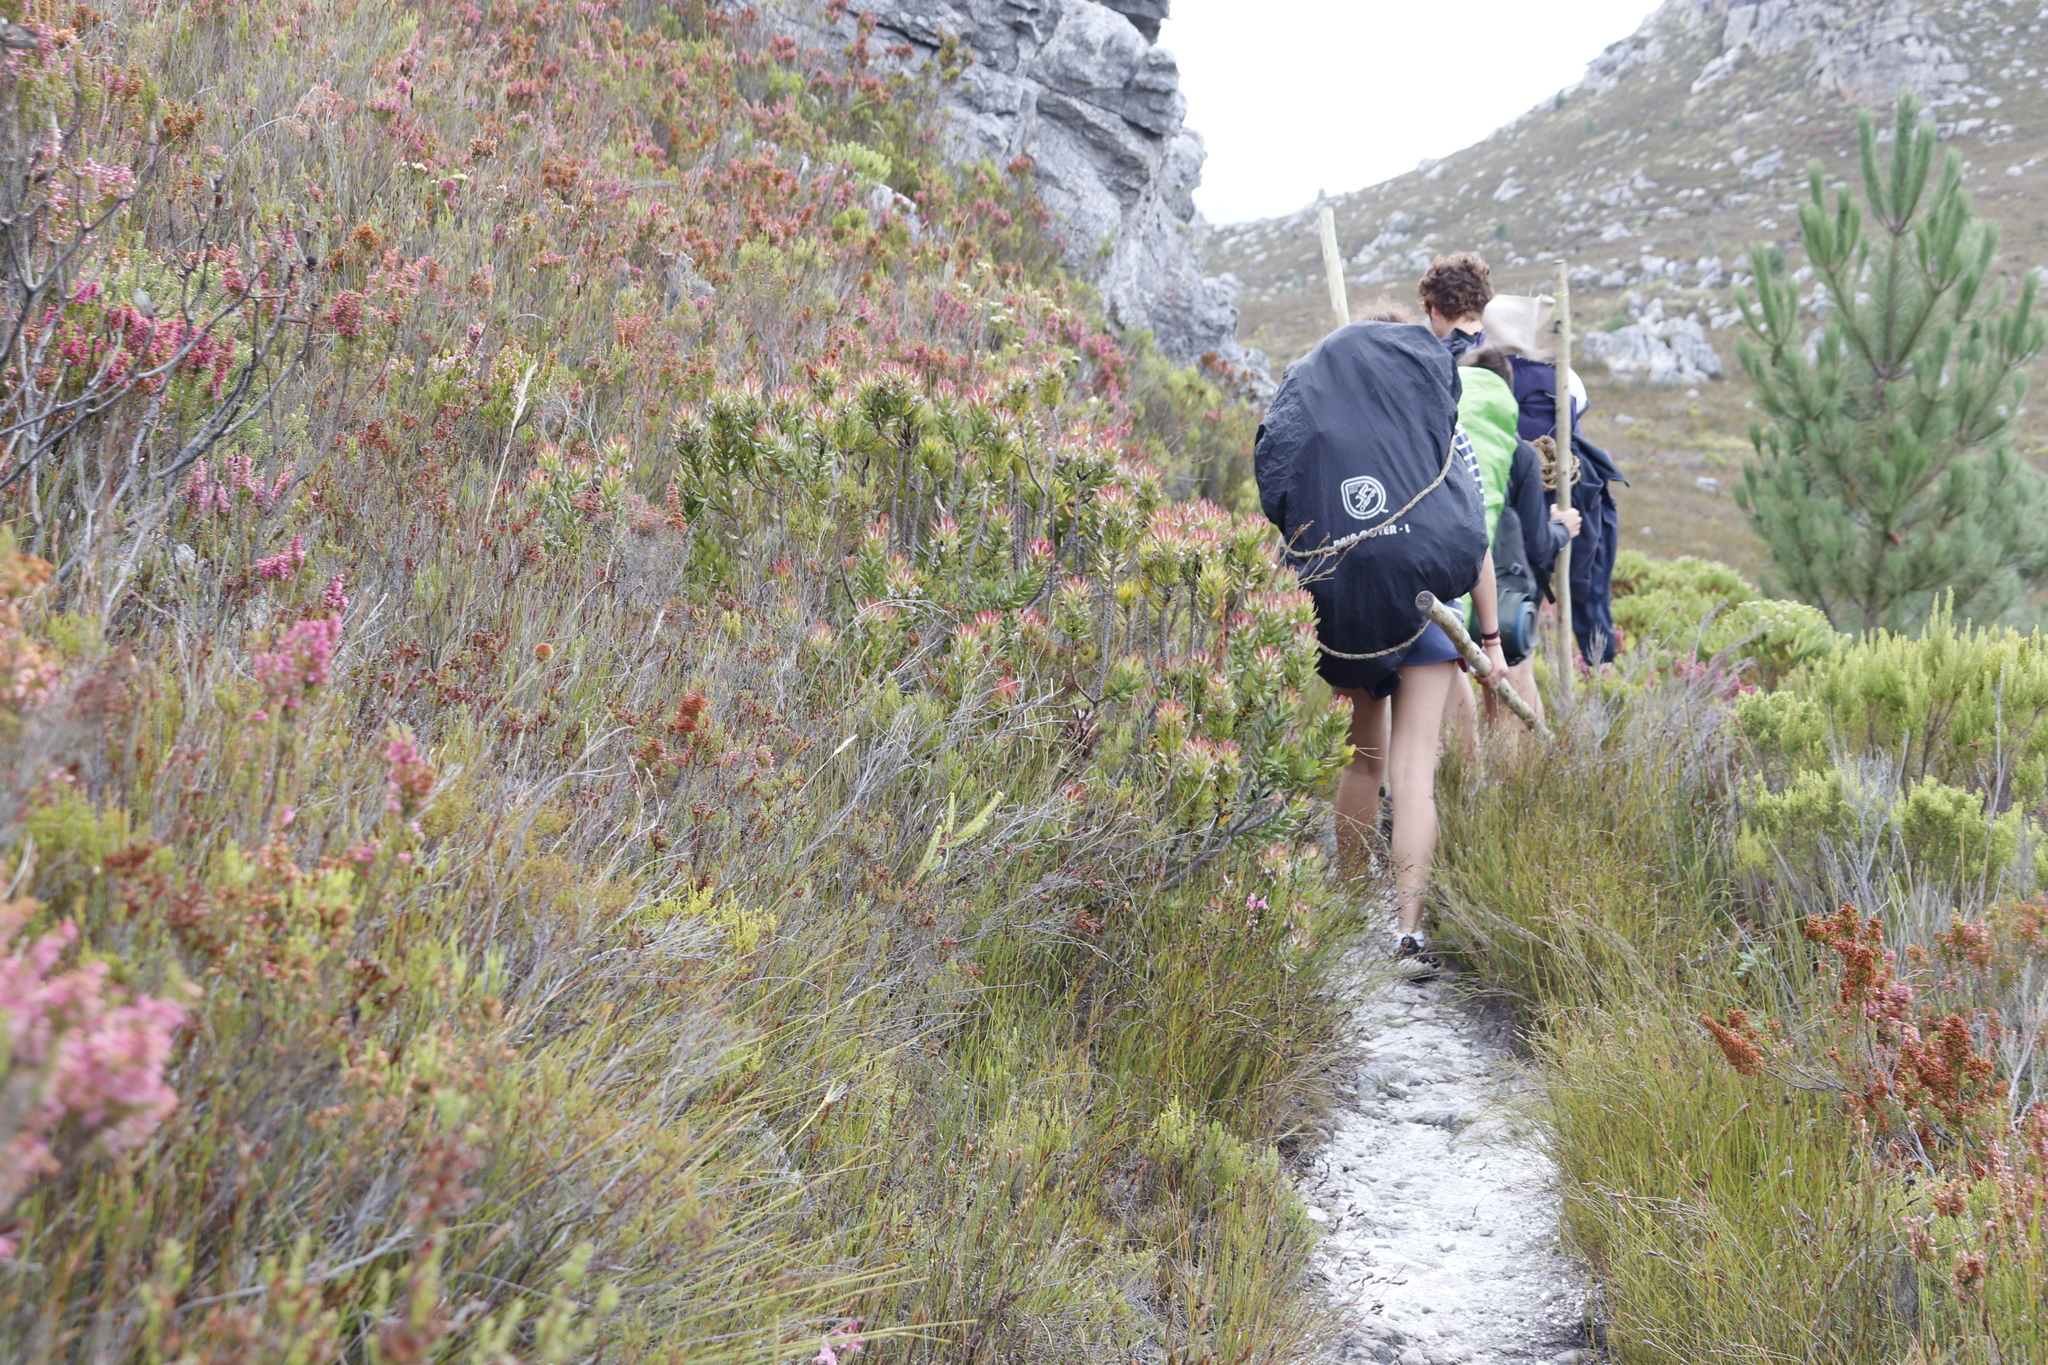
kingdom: Plantae
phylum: Tracheophyta
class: Magnoliopsida
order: Proteales
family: Proteaceae
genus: Mimetes
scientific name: Mimetes cucullatus
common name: Common pagoda
